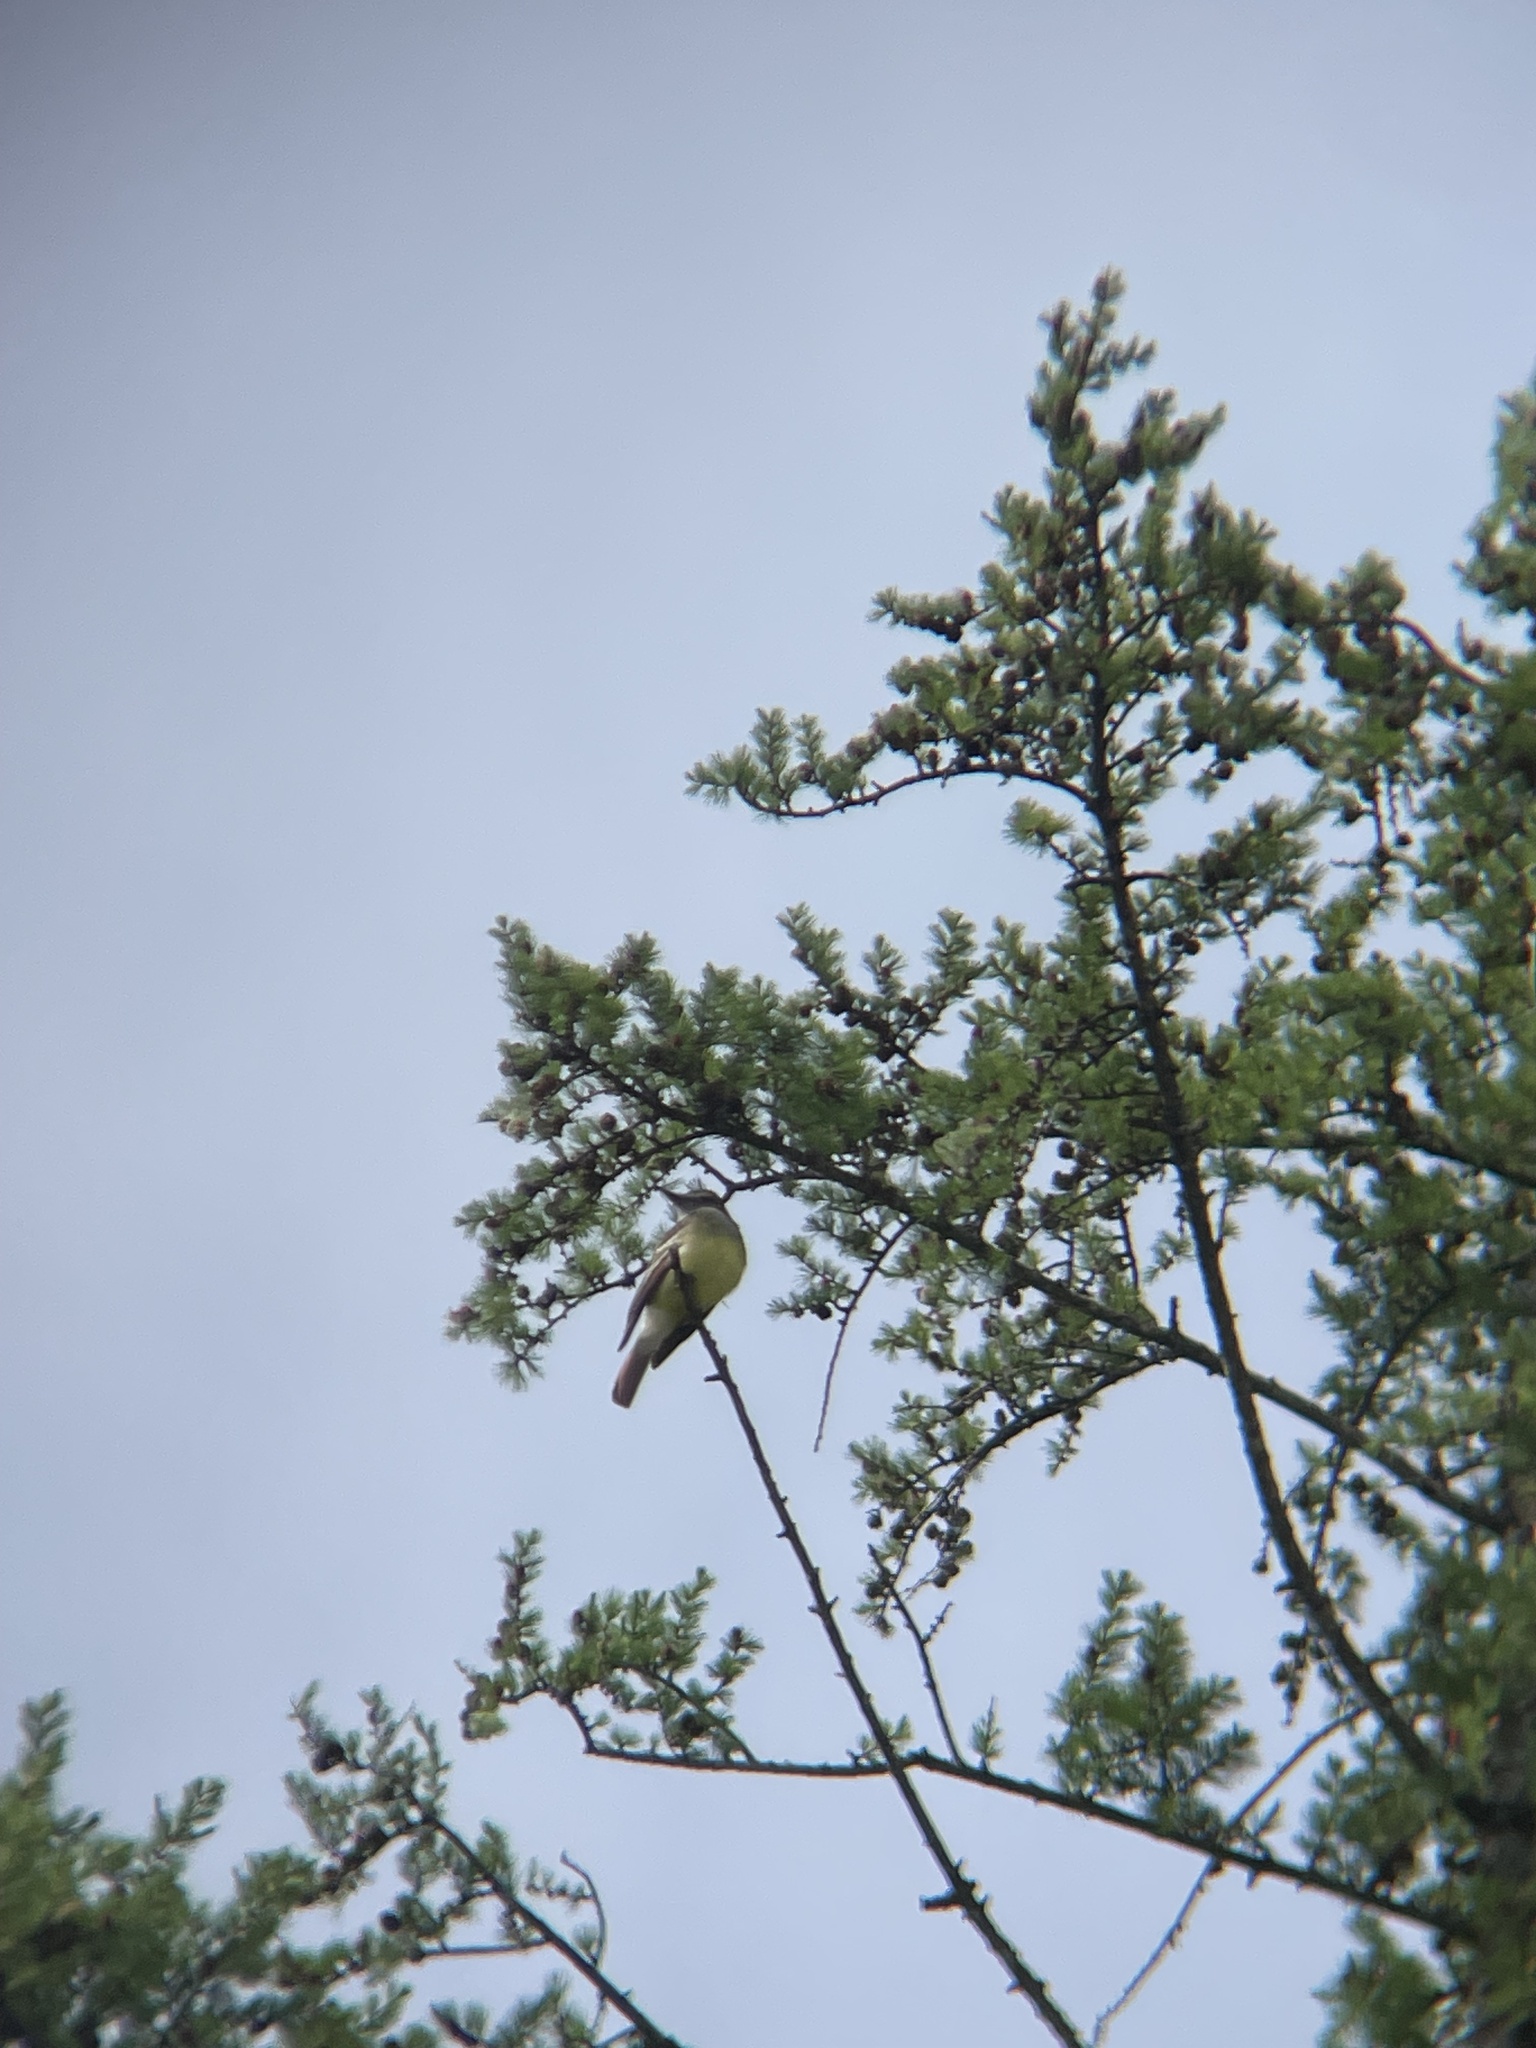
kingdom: Animalia
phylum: Chordata
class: Aves
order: Passeriformes
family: Tyrannidae
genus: Myiarchus
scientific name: Myiarchus crinitus
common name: Great crested flycatcher
